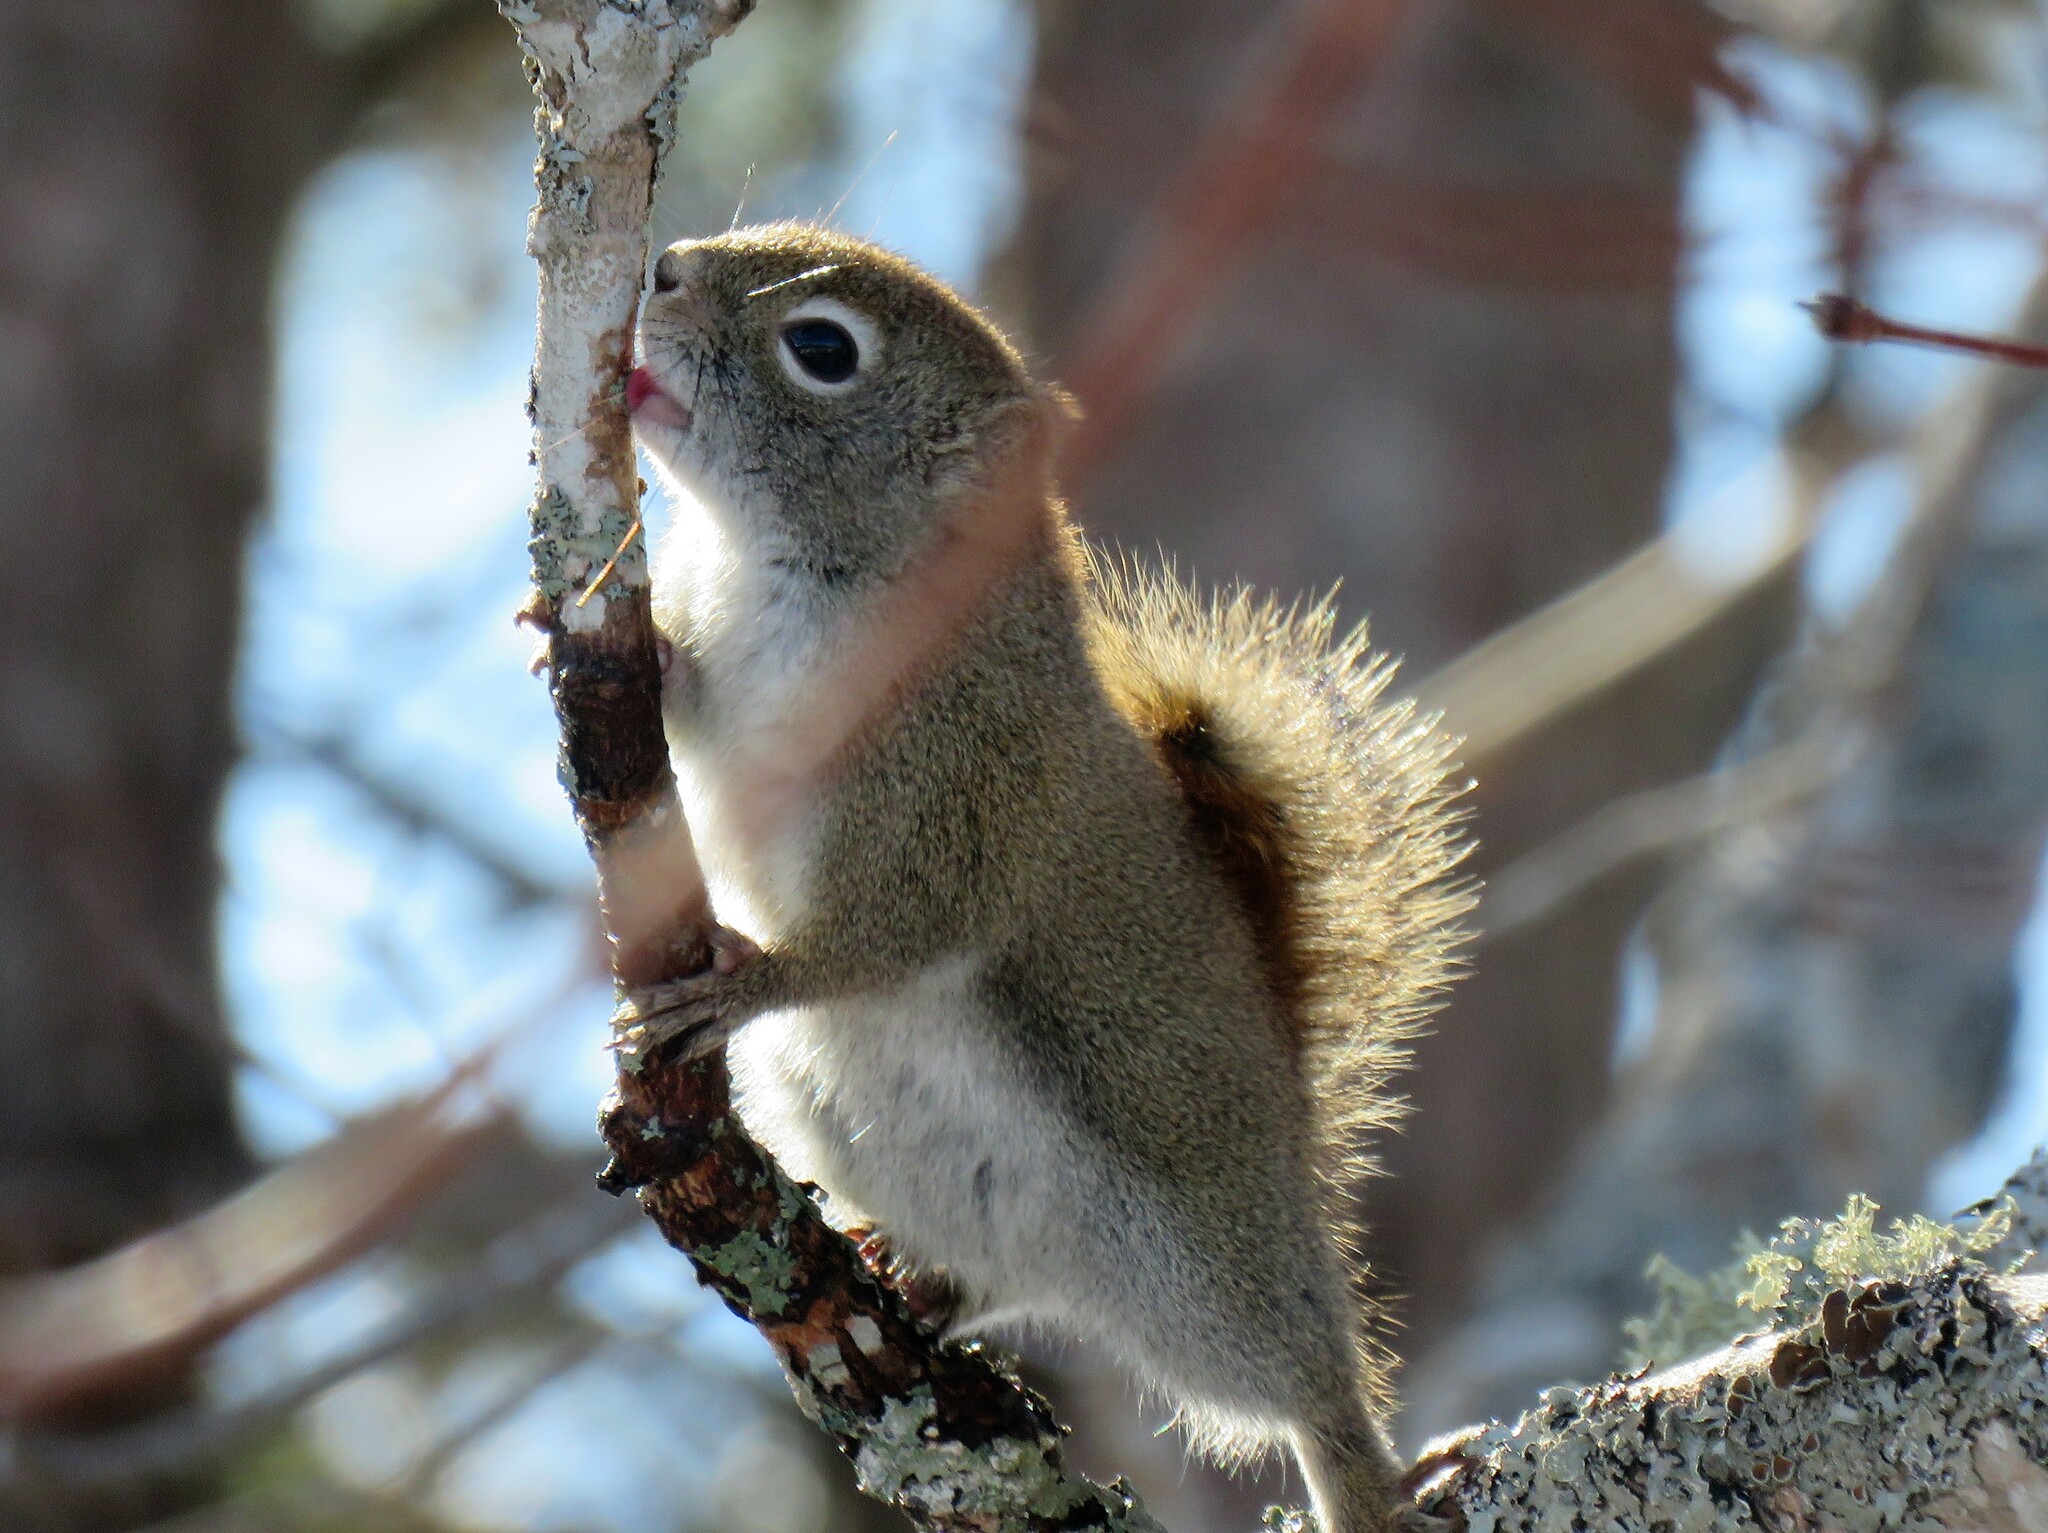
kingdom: Animalia
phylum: Chordata
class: Mammalia
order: Rodentia
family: Sciuridae
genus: Tamiasciurus
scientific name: Tamiasciurus hudsonicus
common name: Red squirrel
